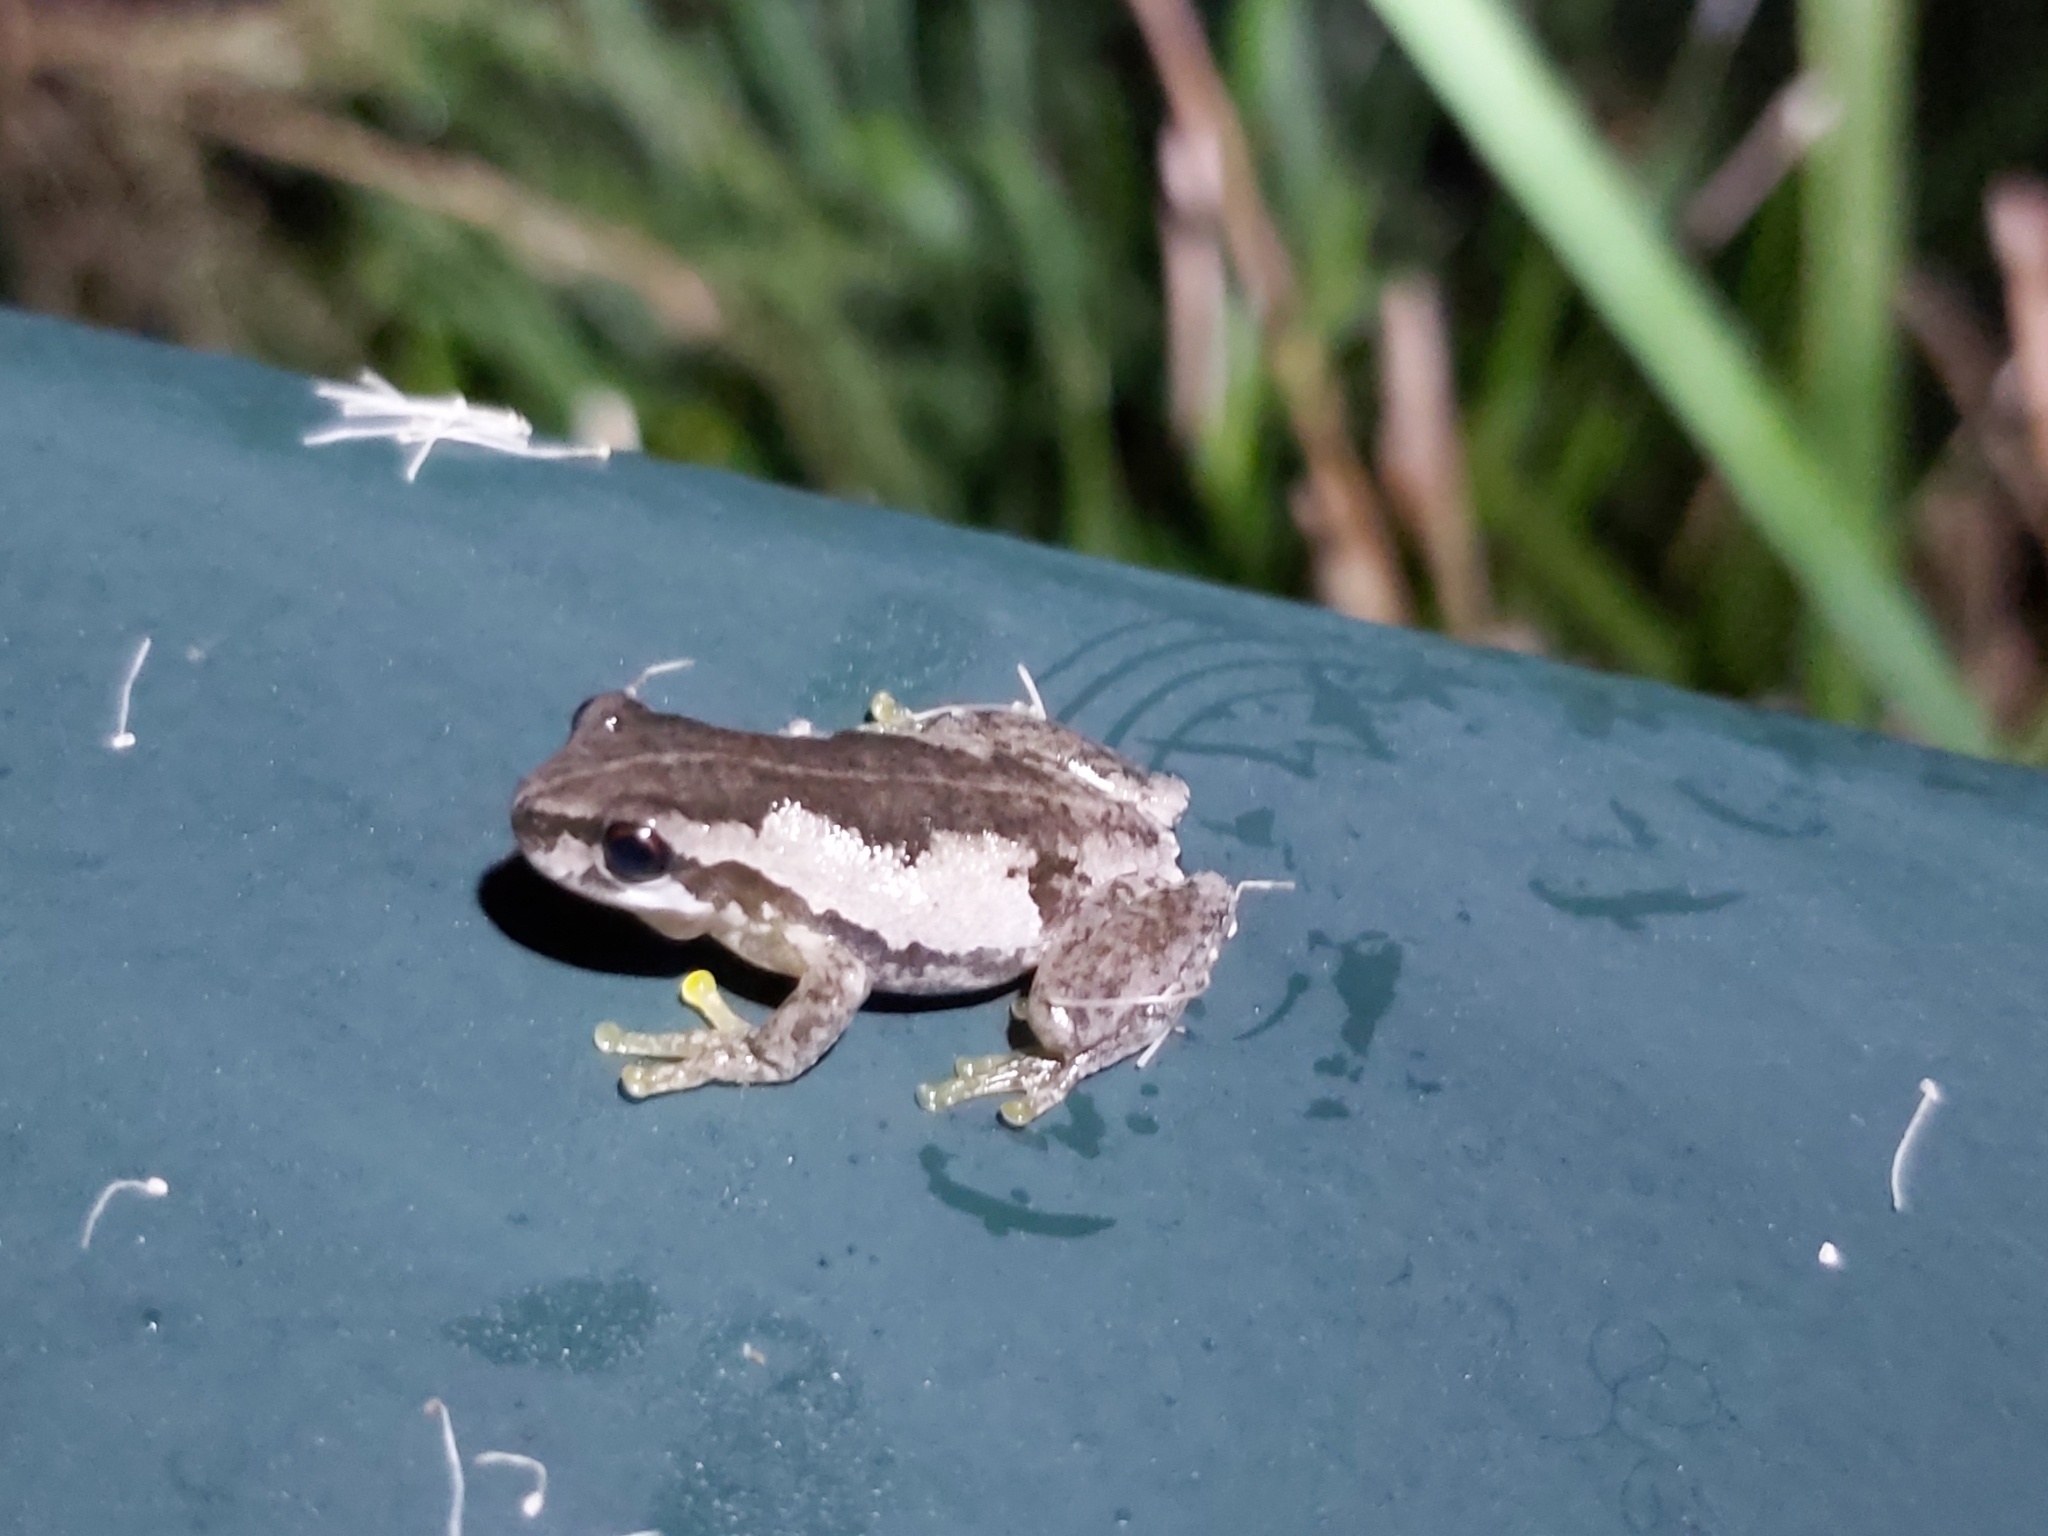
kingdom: Animalia
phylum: Chordata
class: Amphibia
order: Anura
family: Pelodryadidae
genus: Litoria
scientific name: Litoria quiritatus
